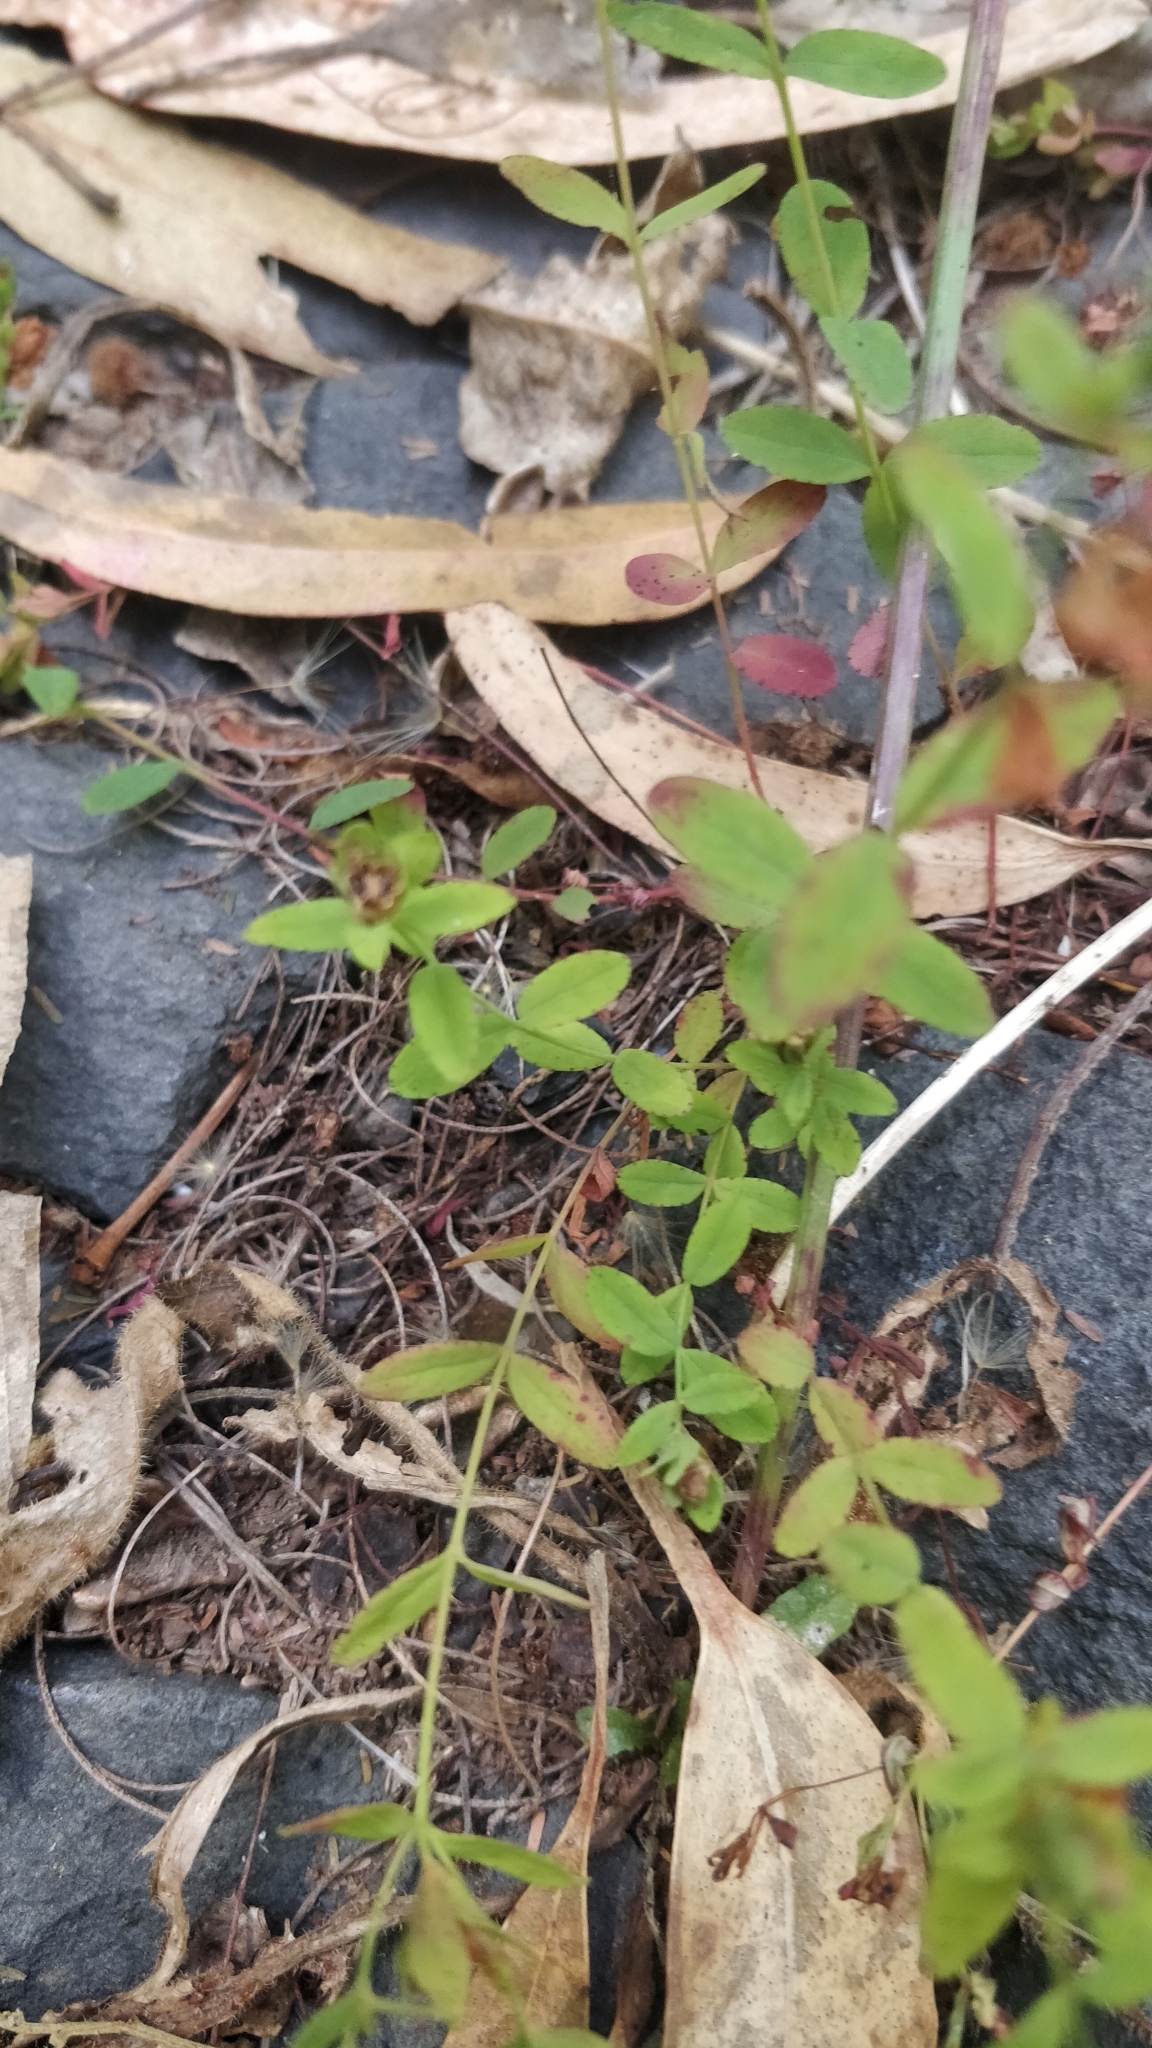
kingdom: Plantae
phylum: Tracheophyta
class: Magnoliopsida
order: Malpighiales
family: Hypericaceae
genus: Hypericum
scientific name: Hypericum humifusum
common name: Trailing st. john's-wort
